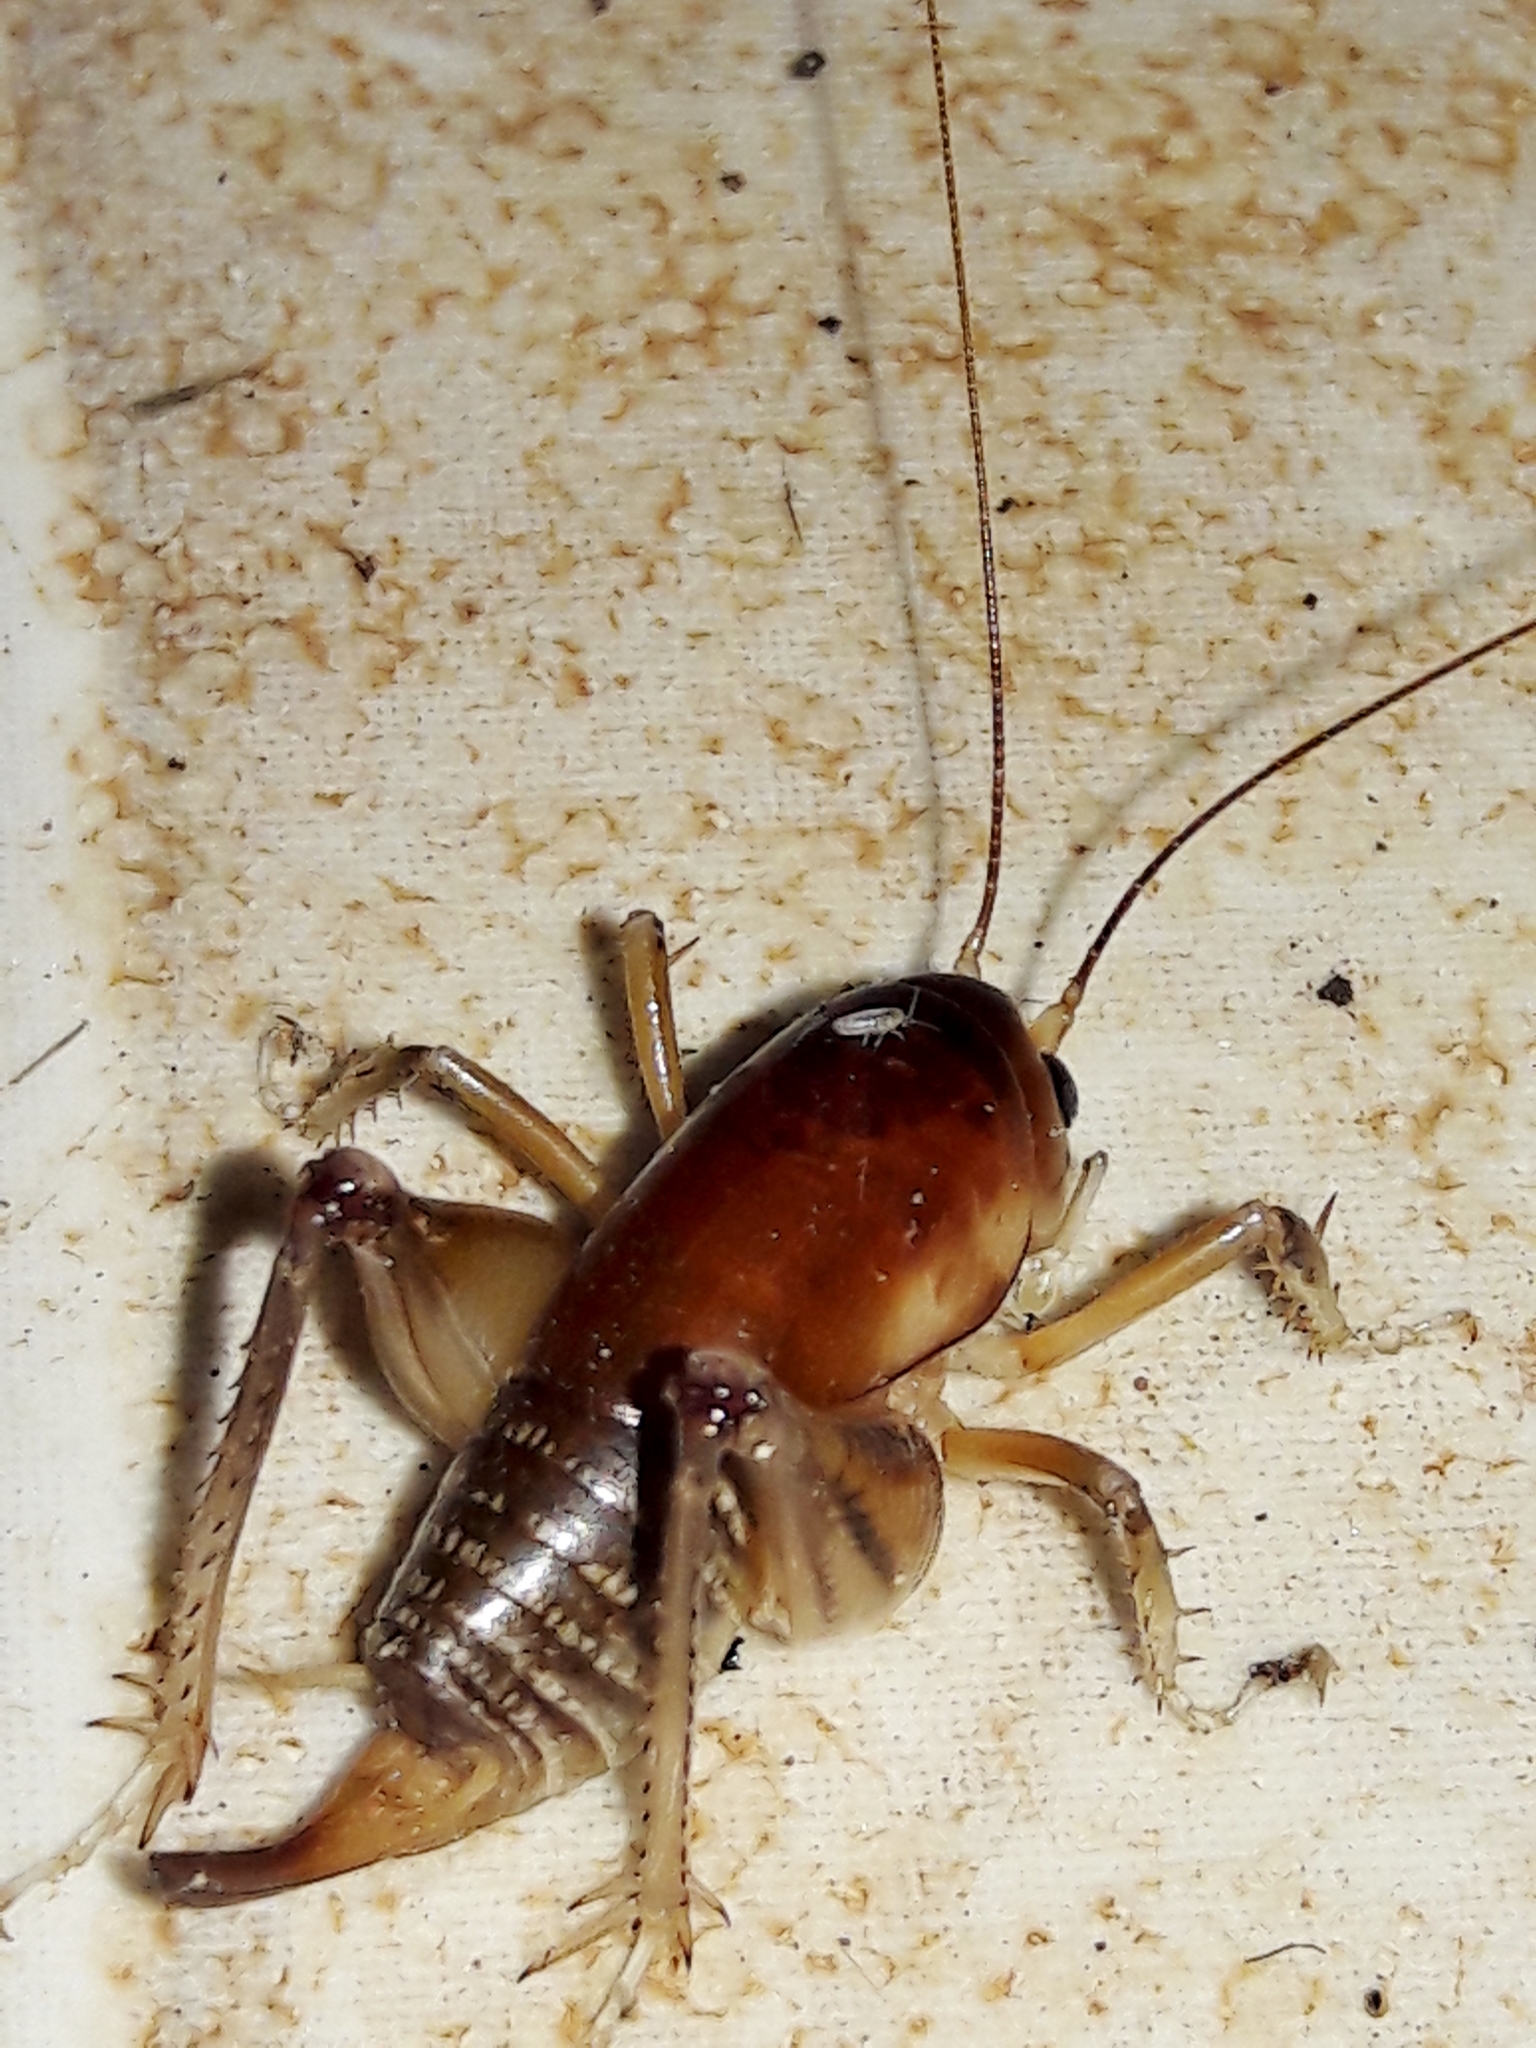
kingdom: Animalia
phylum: Arthropoda
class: Insecta
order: Orthoptera
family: Anostostomatidae
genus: Apotetamenus
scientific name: Apotetamenus clipeatus
